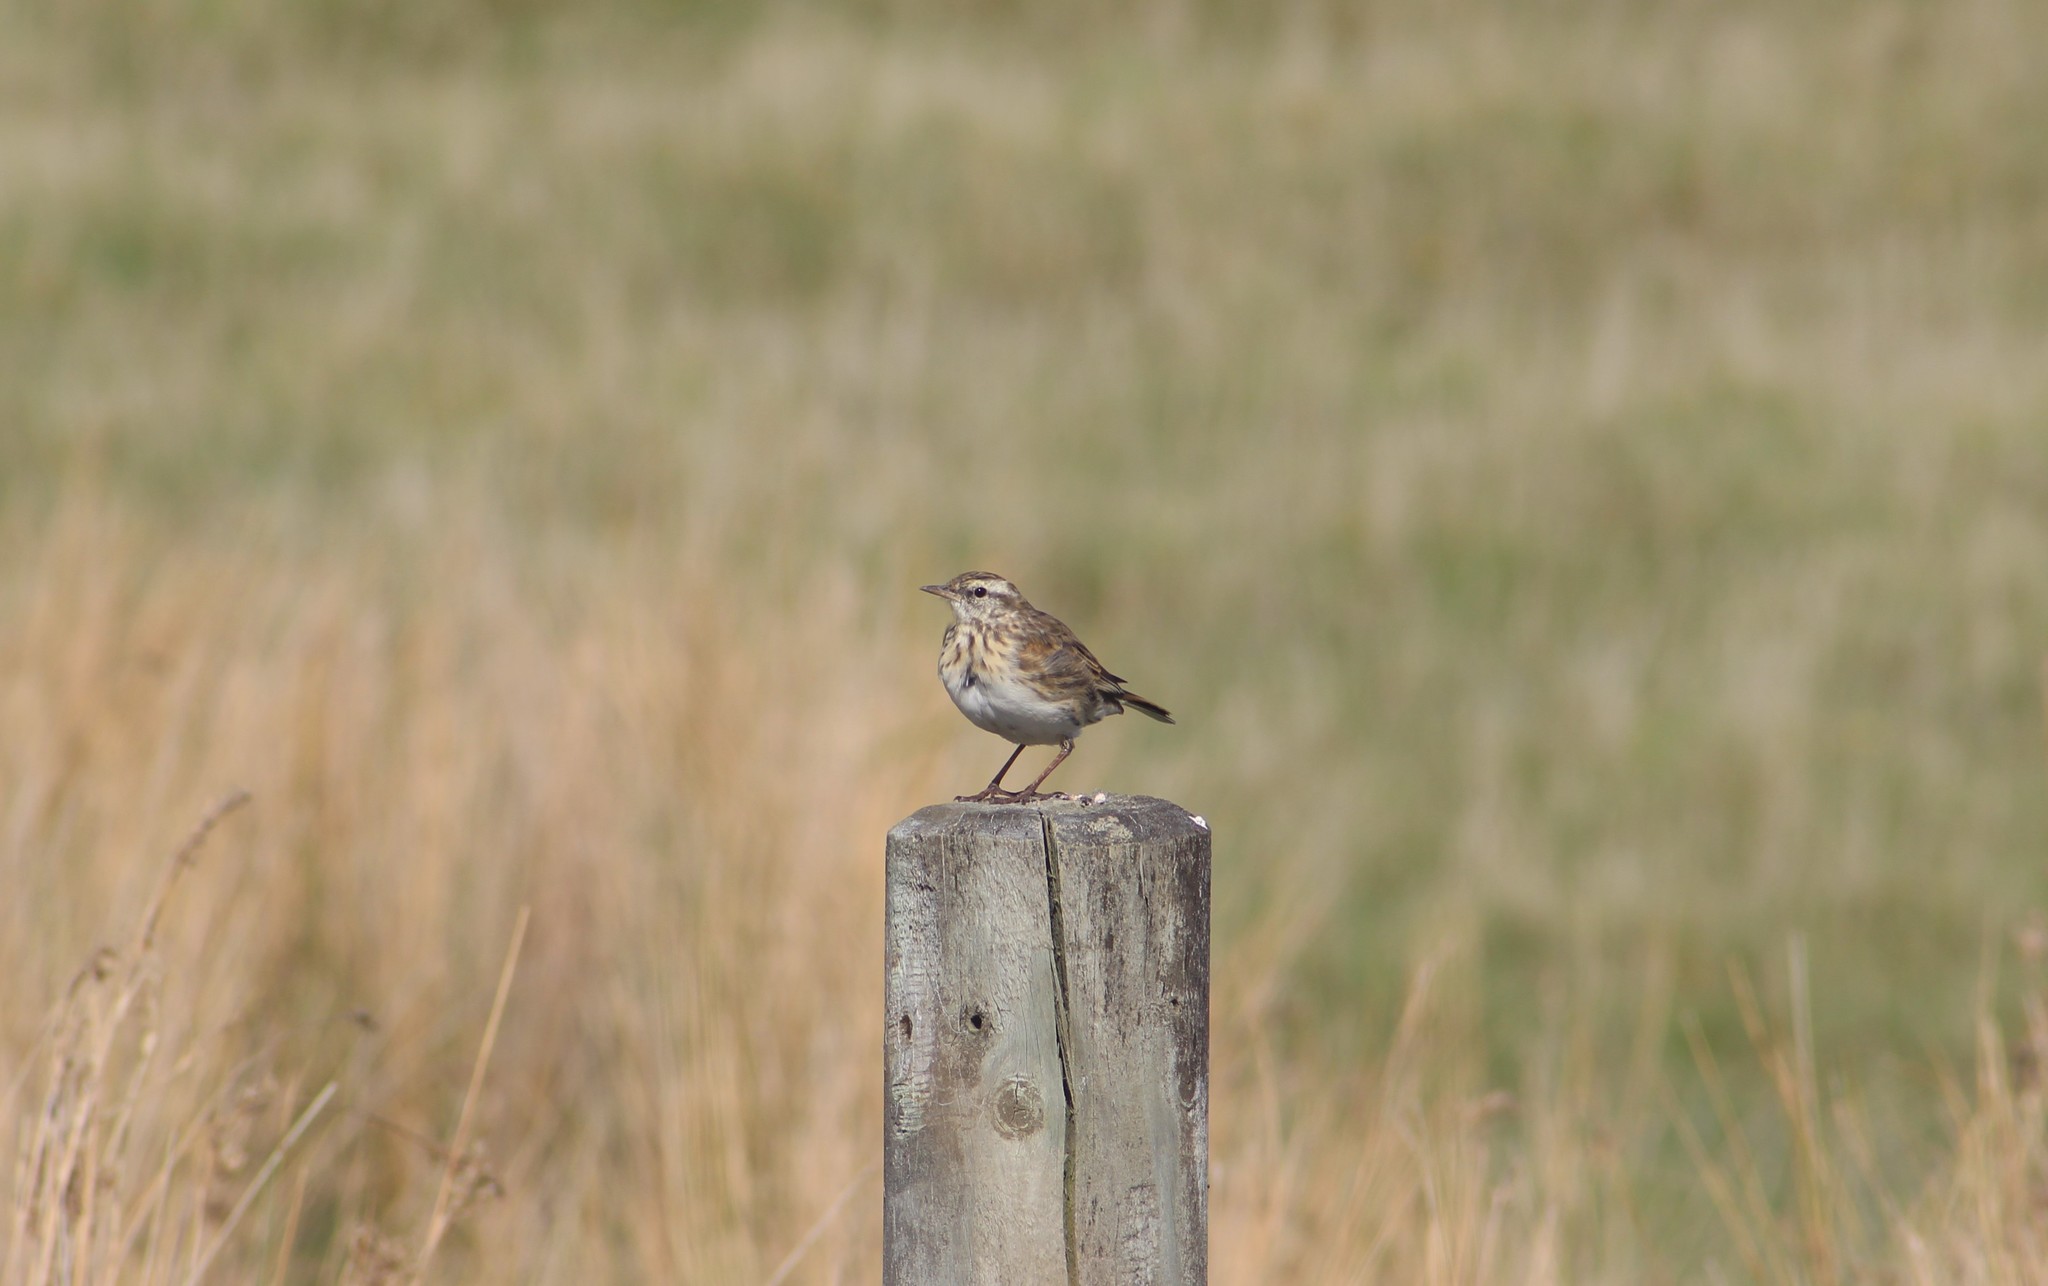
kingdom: Animalia
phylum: Chordata
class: Aves
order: Passeriformes
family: Motacillidae
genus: Anthus
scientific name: Anthus novaeseelandiae
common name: New zealand pipit
